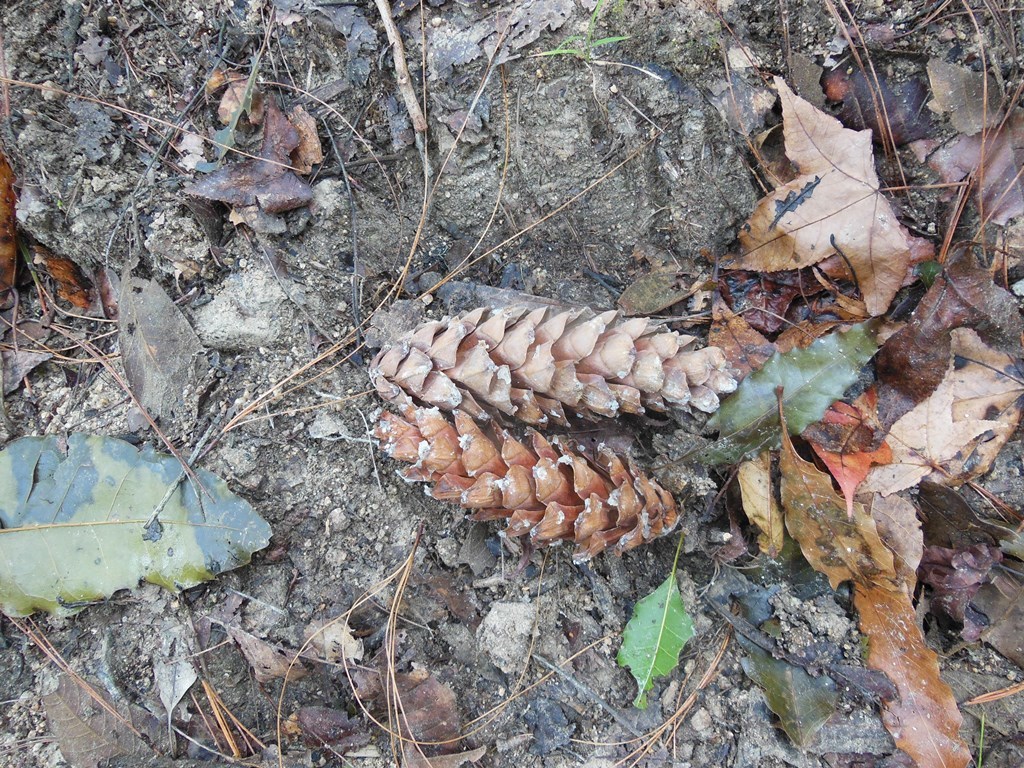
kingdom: Plantae
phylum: Tracheophyta
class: Pinopsida
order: Pinales
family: Pinaceae
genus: Pinus
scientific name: Pinus strobus
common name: Weymouth pine
